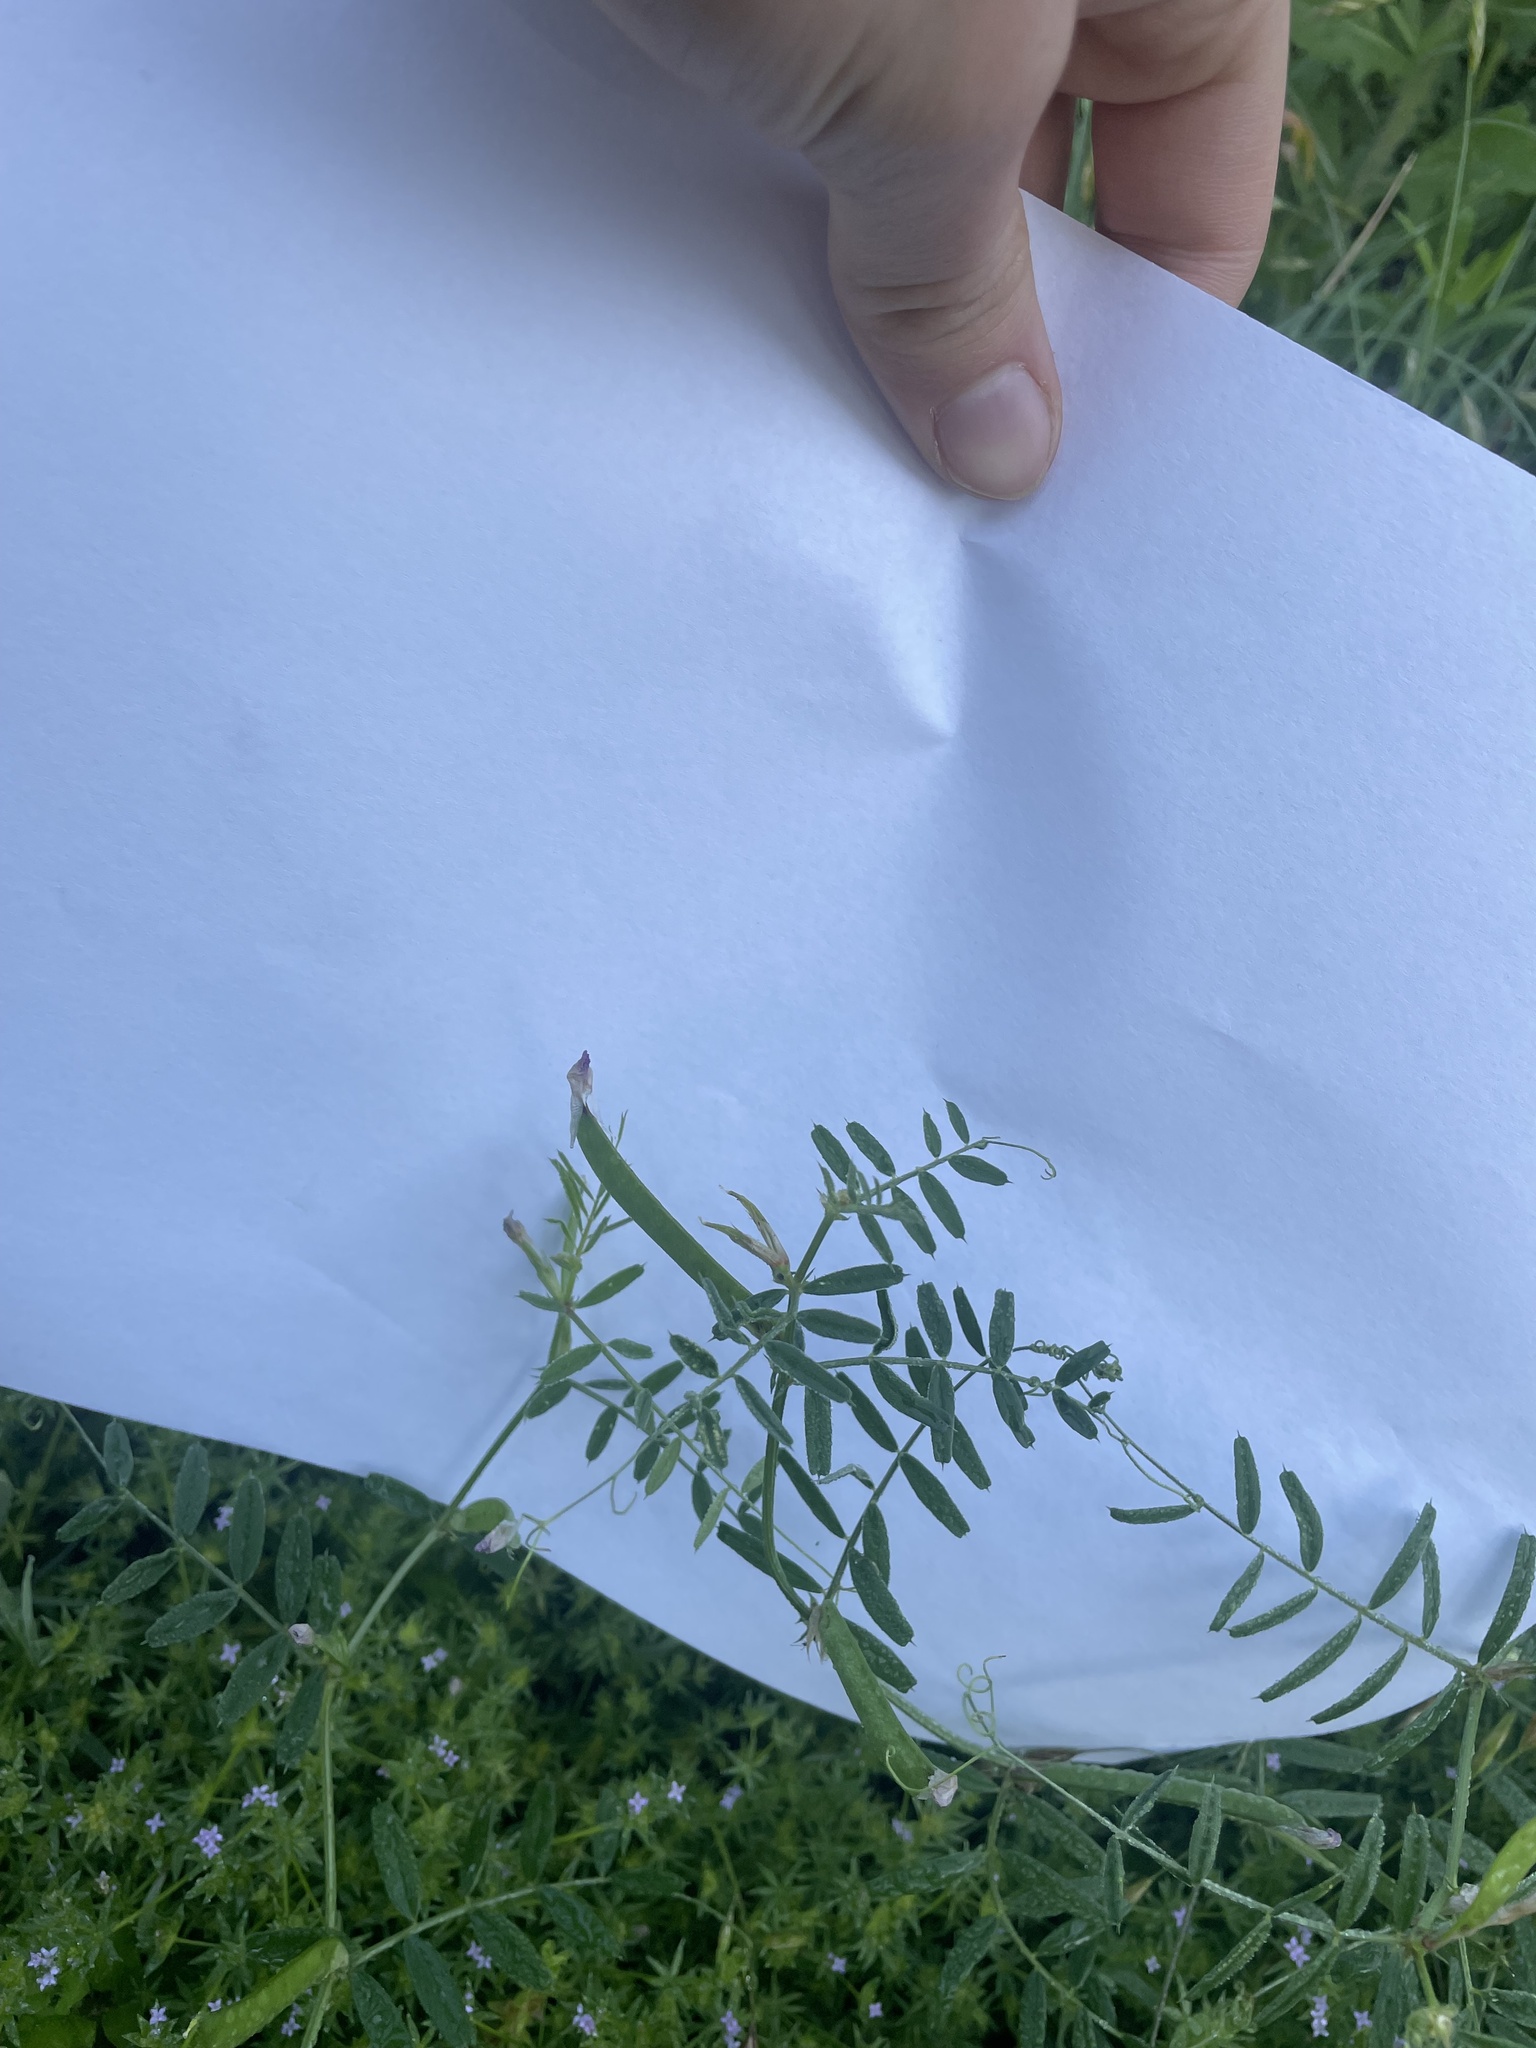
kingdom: Plantae
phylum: Tracheophyta
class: Magnoliopsida
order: Fabales
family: Fabaceae
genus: Vicia
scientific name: Vicia ludoviciana
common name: Louisiana vetch
